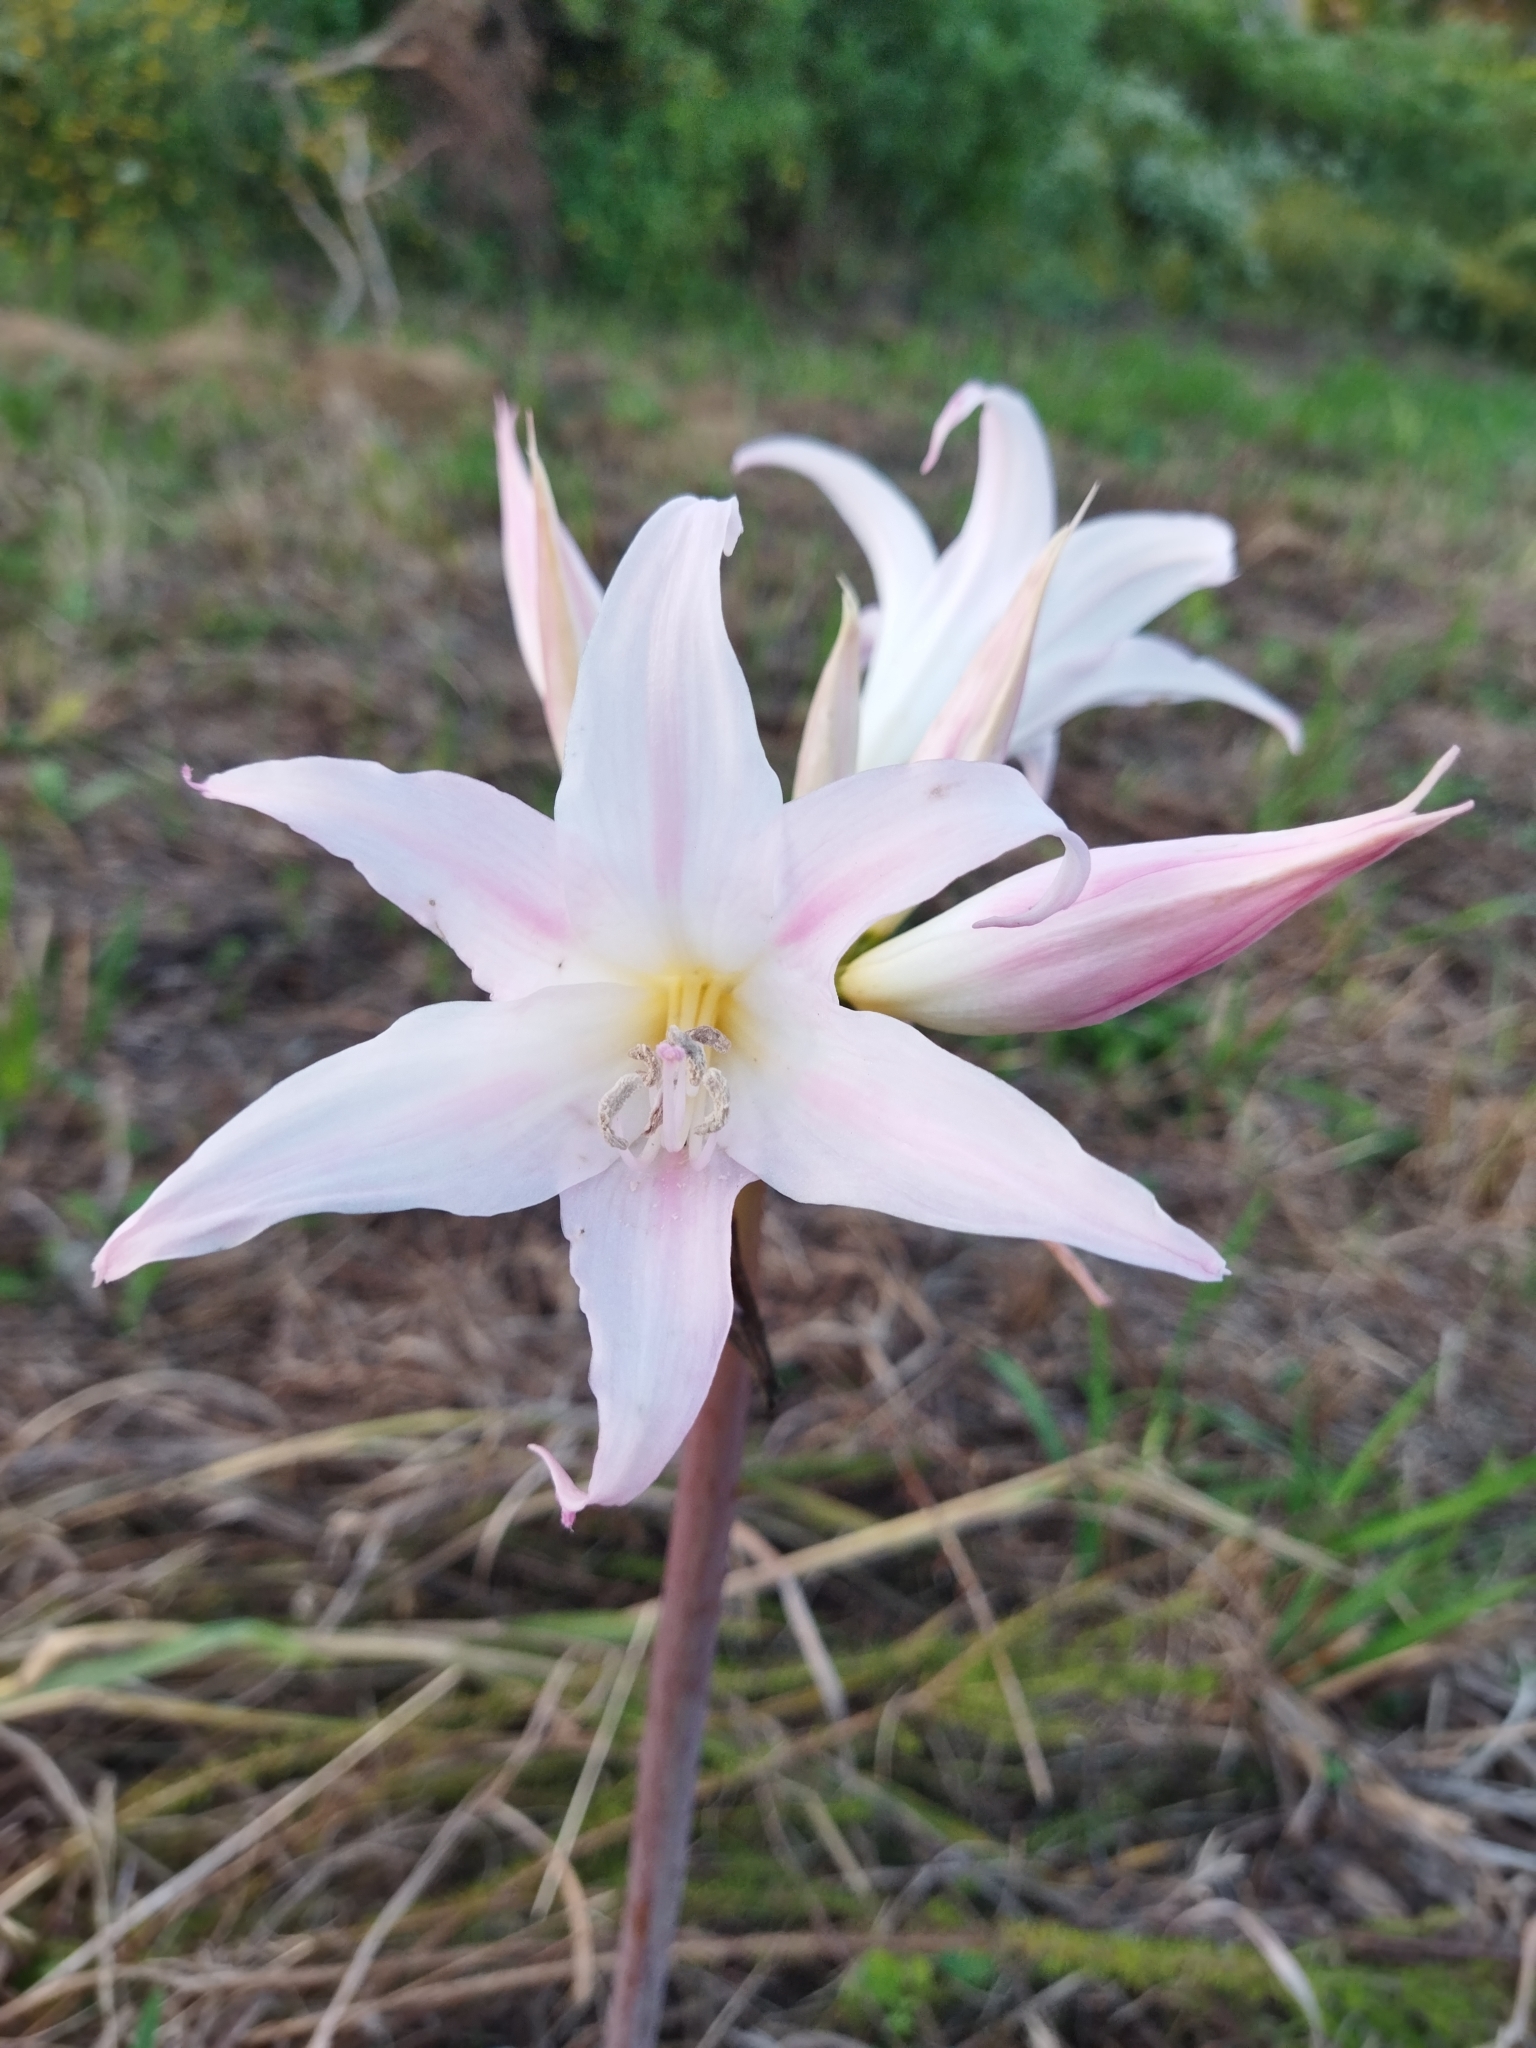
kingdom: Plantae
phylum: Tracheophyta
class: Liliopsida
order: Asparagales
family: Amaryllidaceae
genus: Amaryllis
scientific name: Amaryllis belladonna
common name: Jersey lily
